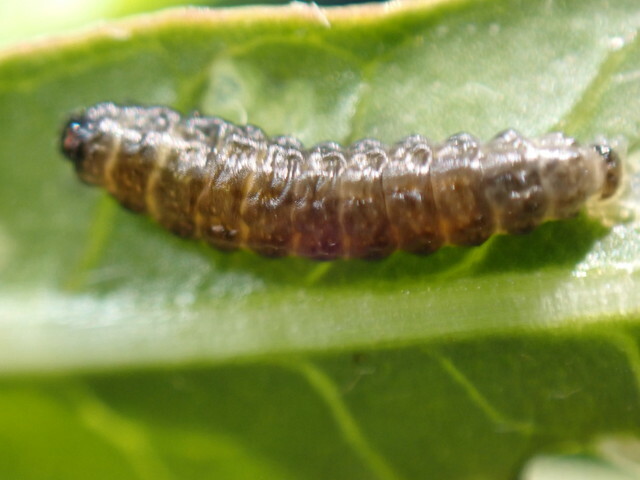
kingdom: Animalia
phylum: Arthropoda
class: Insecta
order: Coleoptera
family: Chrysomelidae
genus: Agasicles
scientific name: Agasicles hygrophila
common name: Alligatorweed flea beetle
